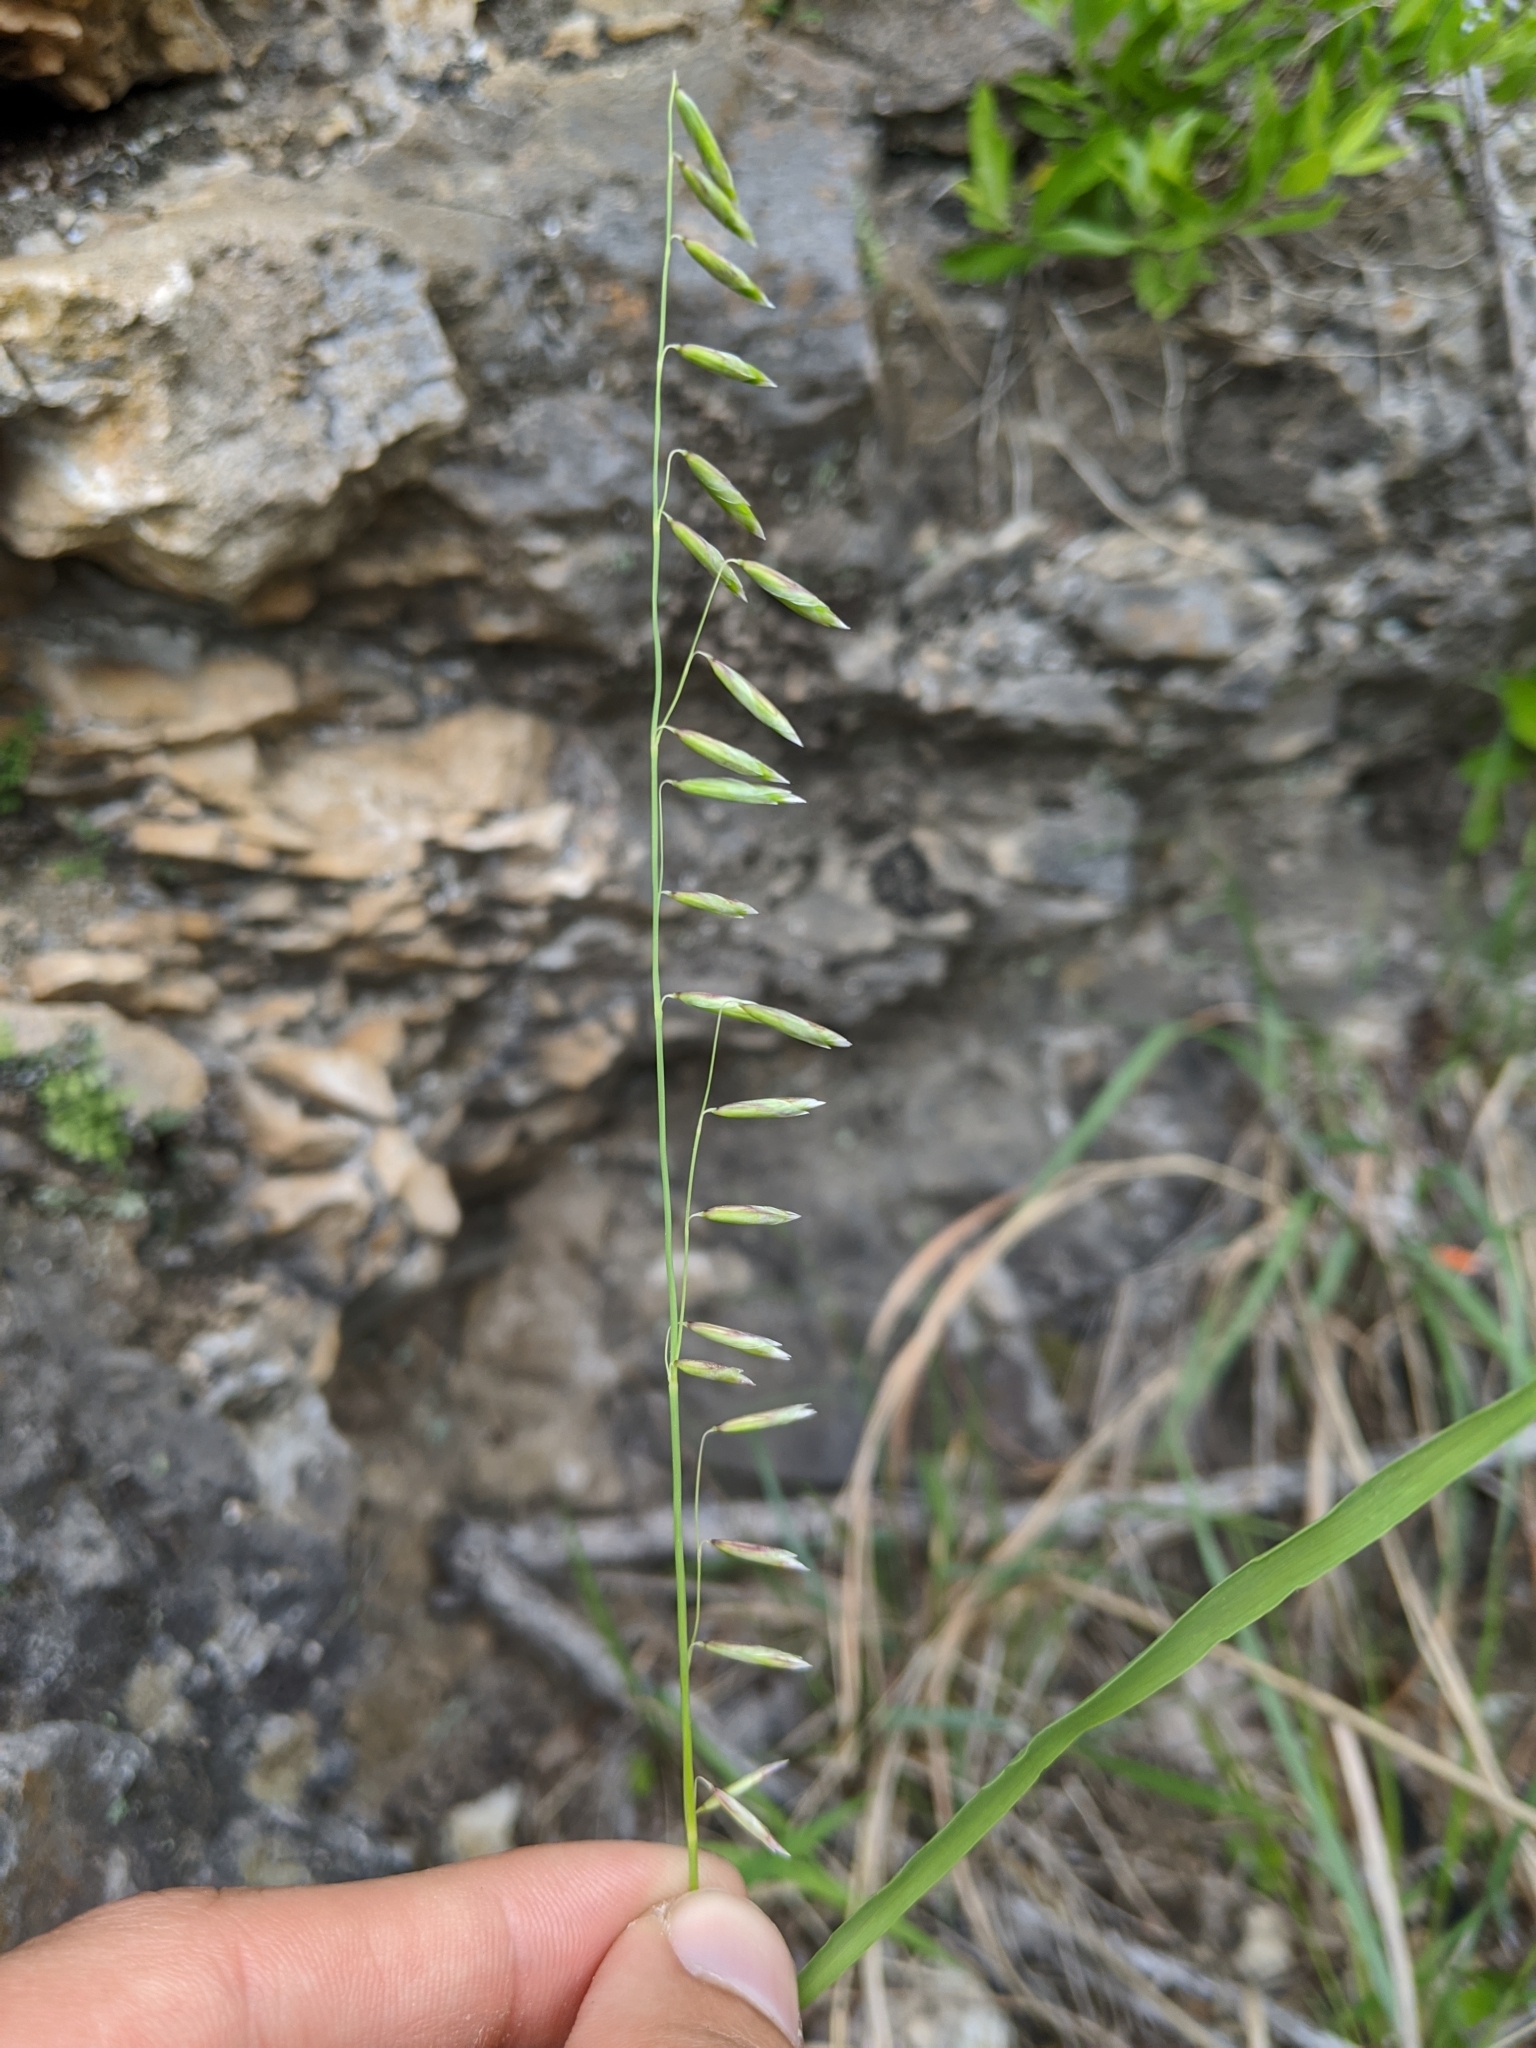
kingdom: Plantae
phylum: Tracheophyta
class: Liliopsida
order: Poales
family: Poaceae
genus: Melica
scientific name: Melica nitens
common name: Three-flower melic
